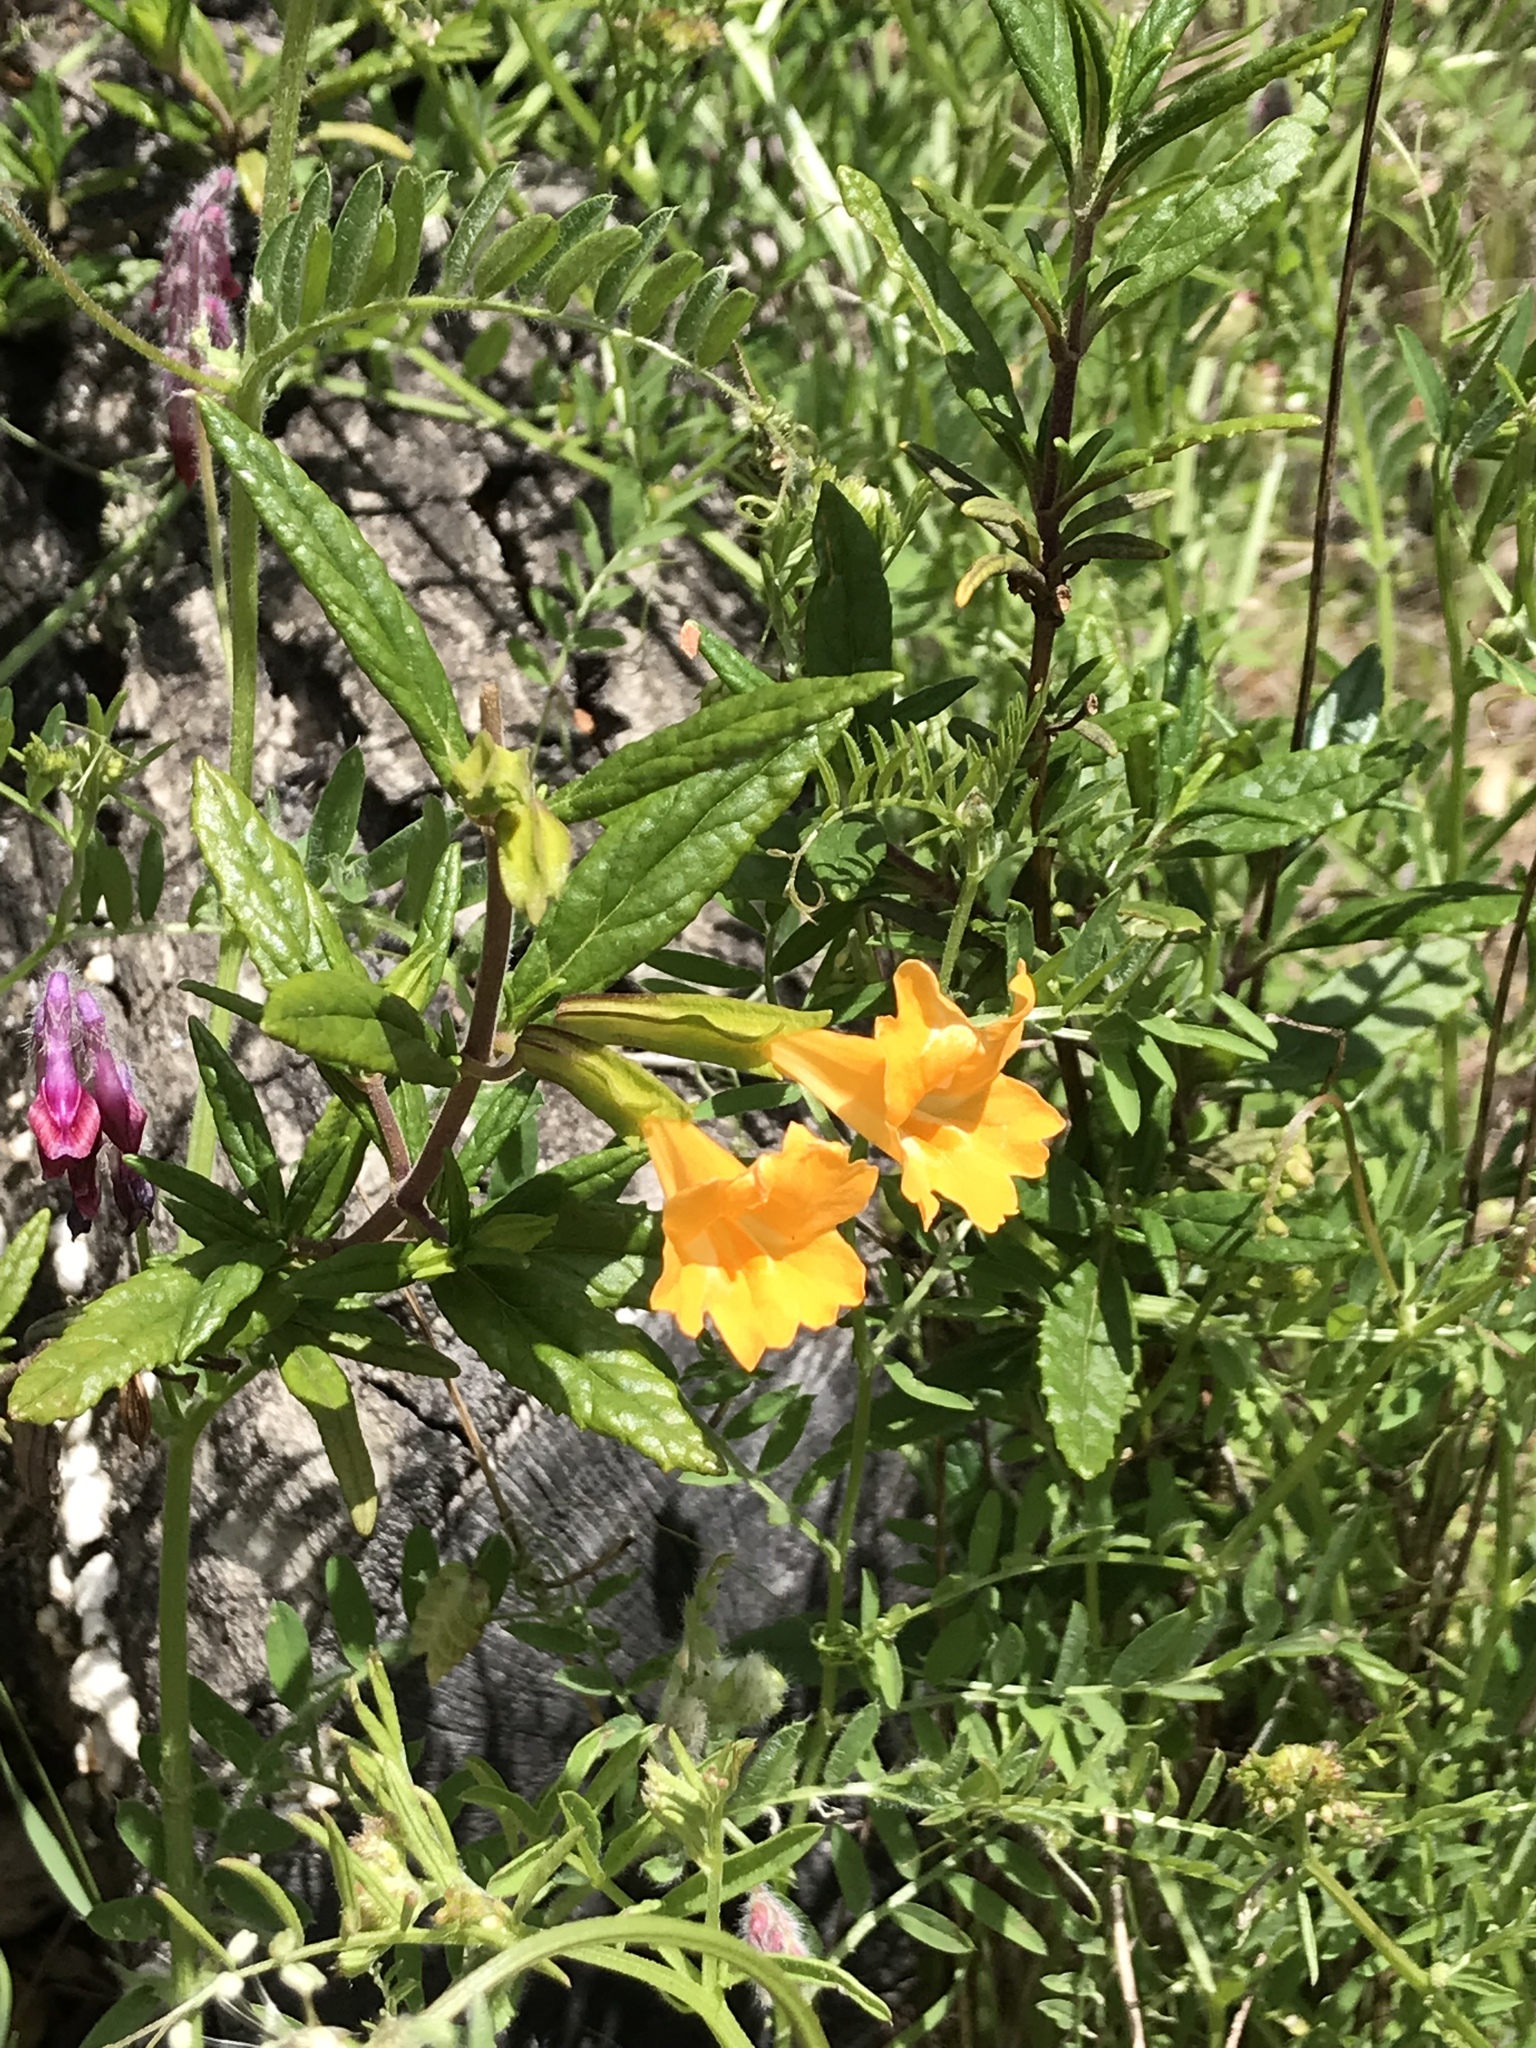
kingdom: Plantae
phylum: Tracheophyta
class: Magnoliopsida
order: Lamiales
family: Phrymaceae
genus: Diplacus
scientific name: Diplacus aurantiacus
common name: Bush monkey-flower
